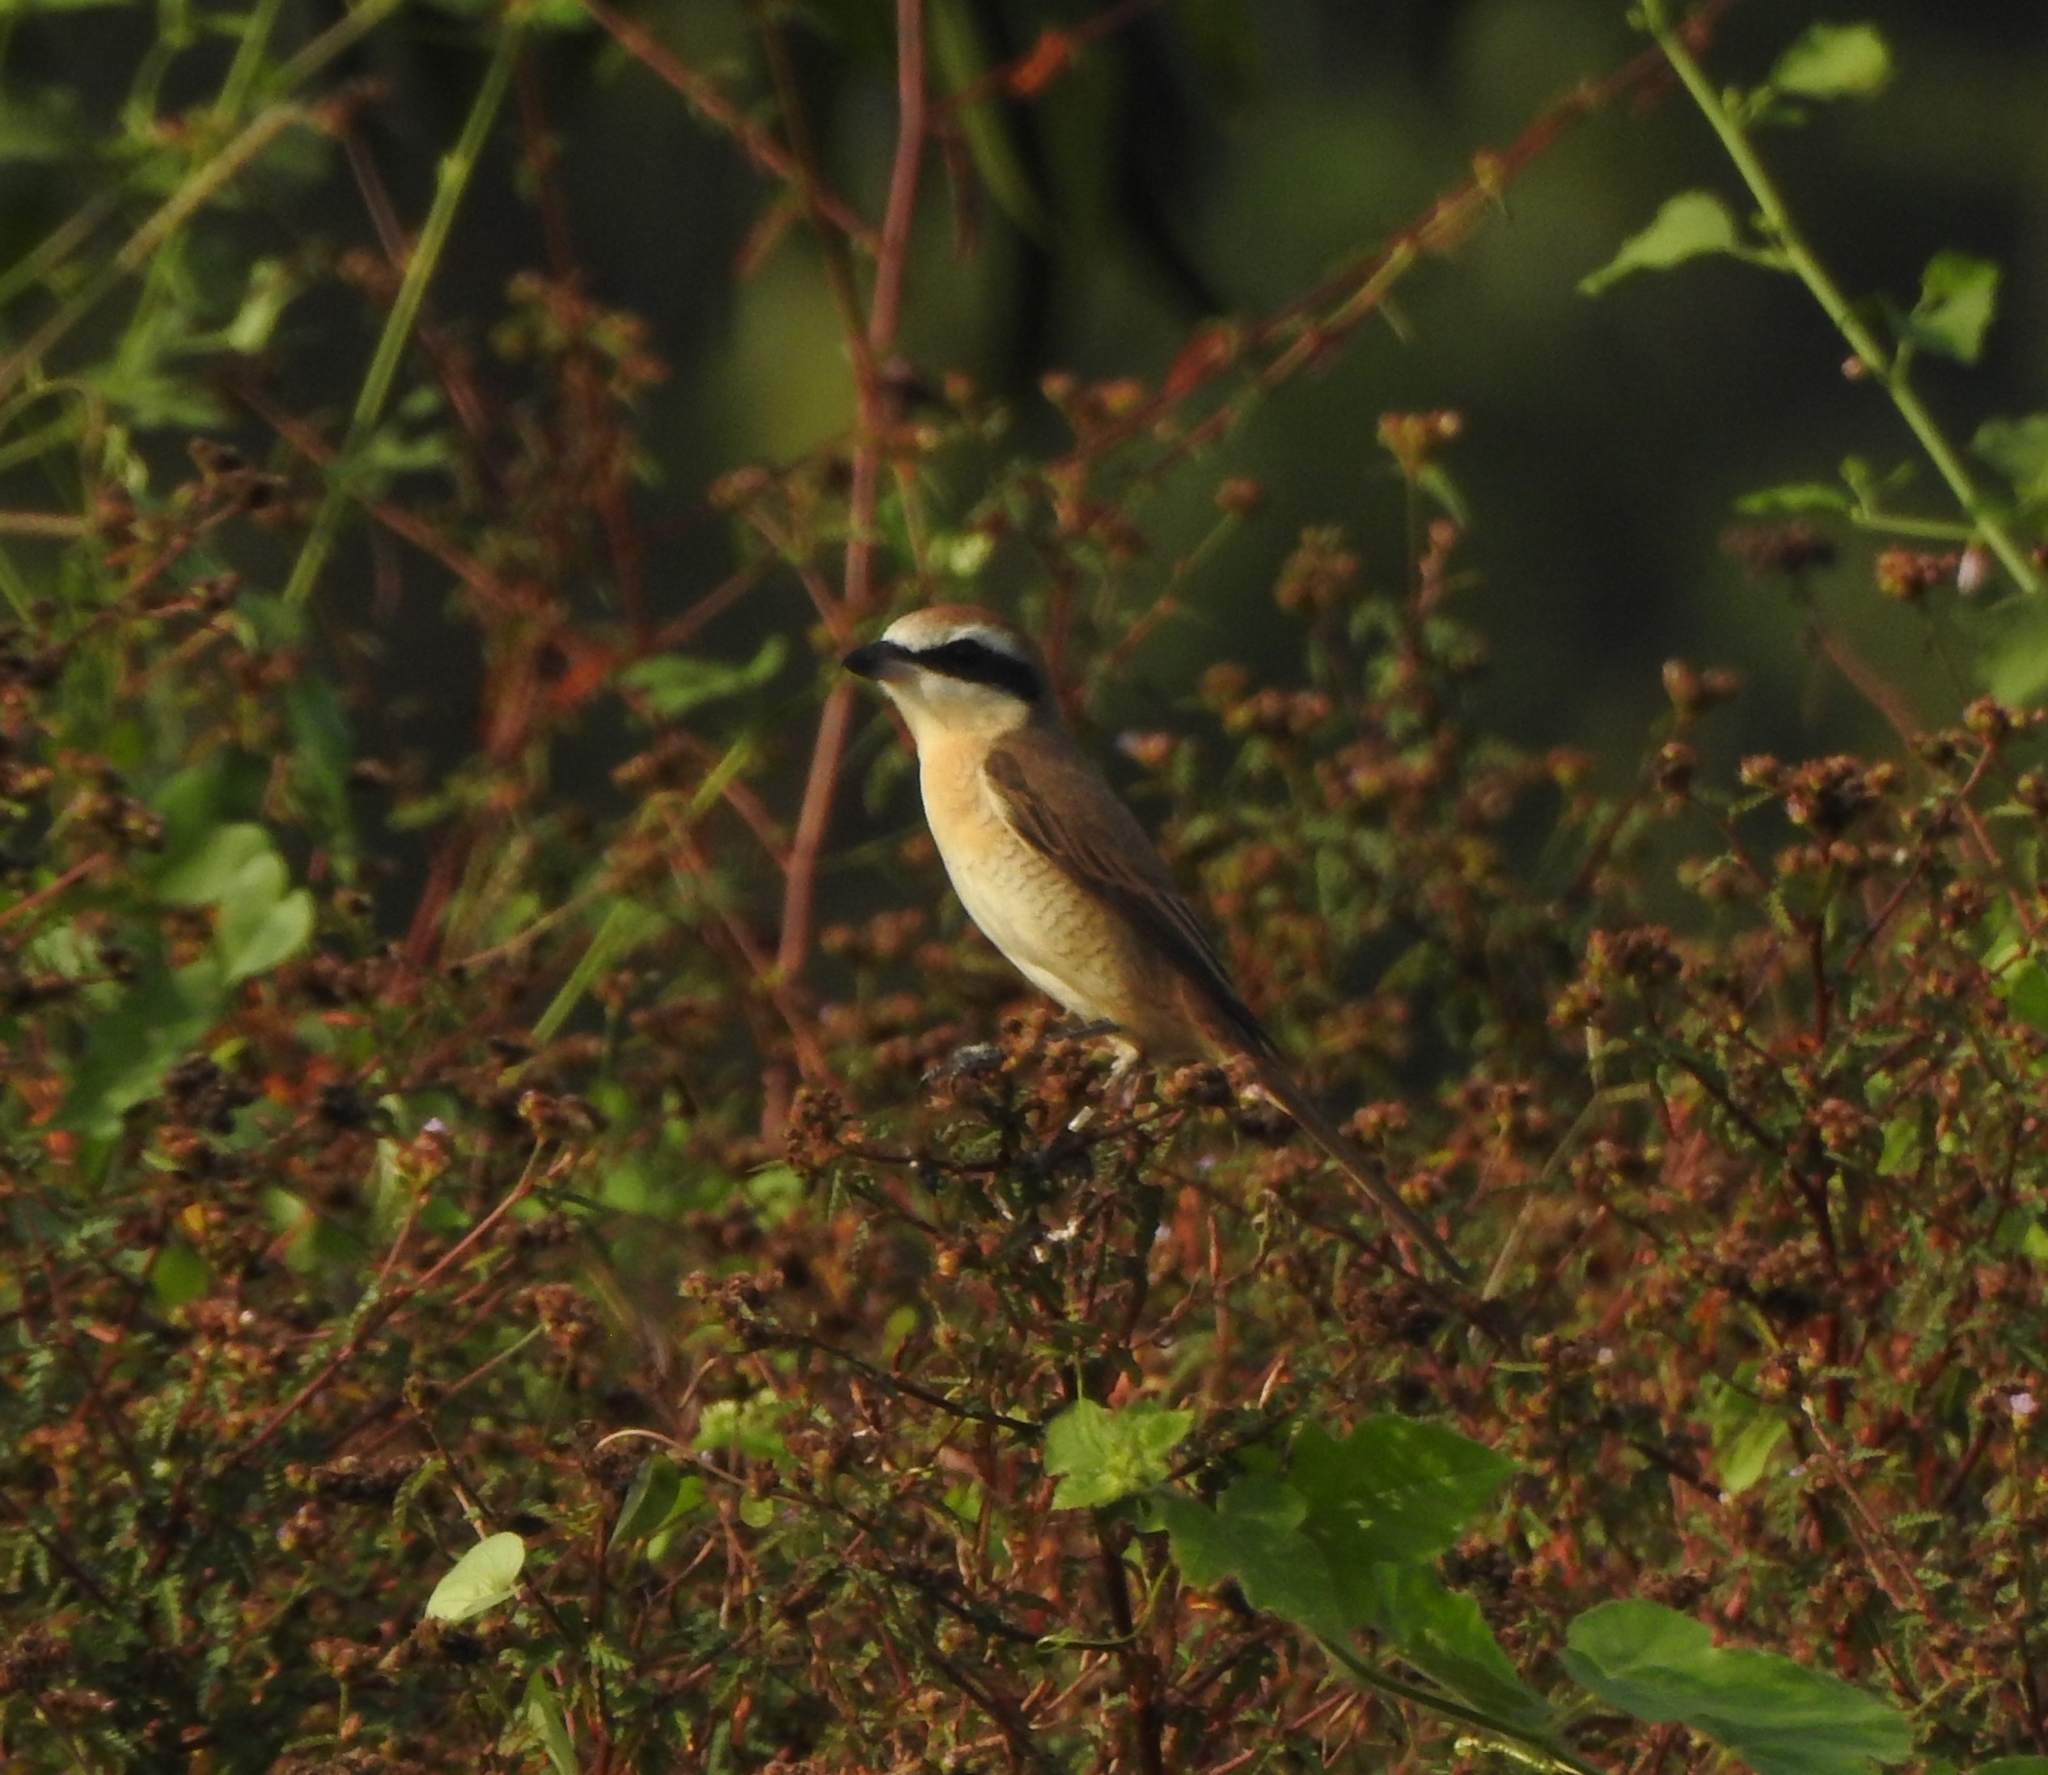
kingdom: Animalia
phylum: Chordata
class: Aves
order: Passeriformes
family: Laniidae
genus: Lanius
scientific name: Lanius cristatus
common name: Brown shrike
